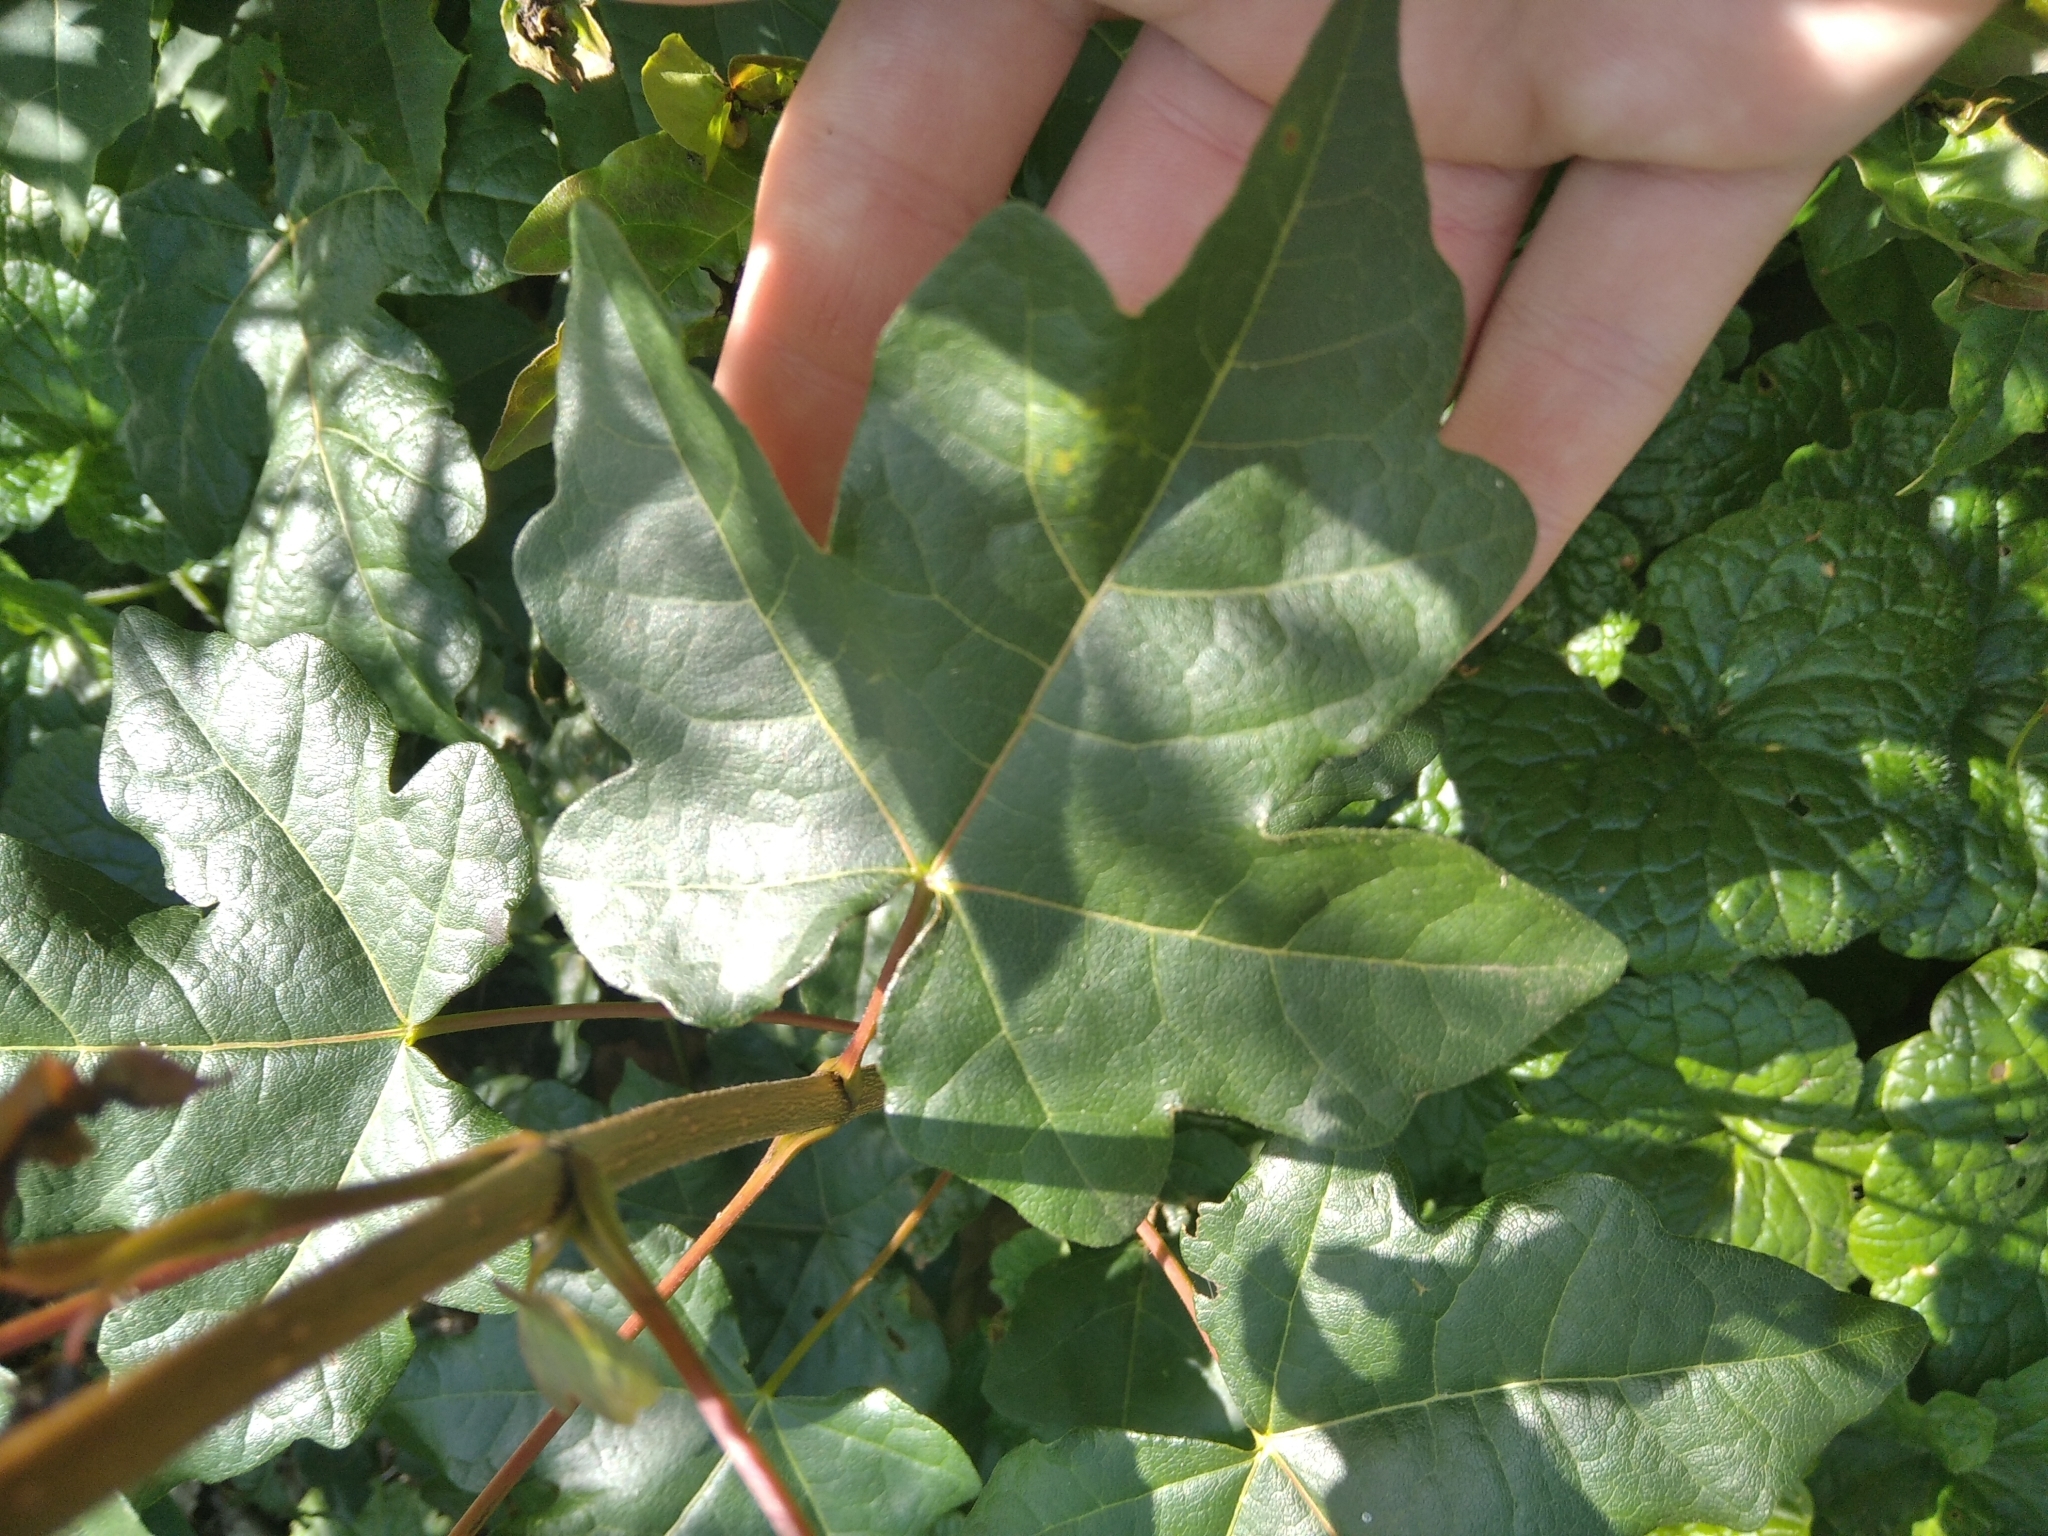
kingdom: Plantae
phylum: Tracheophyta
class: Magnoliopsida
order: Sapindales
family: Sapindaceae
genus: Acer
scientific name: Acer campestre
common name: Field maple
